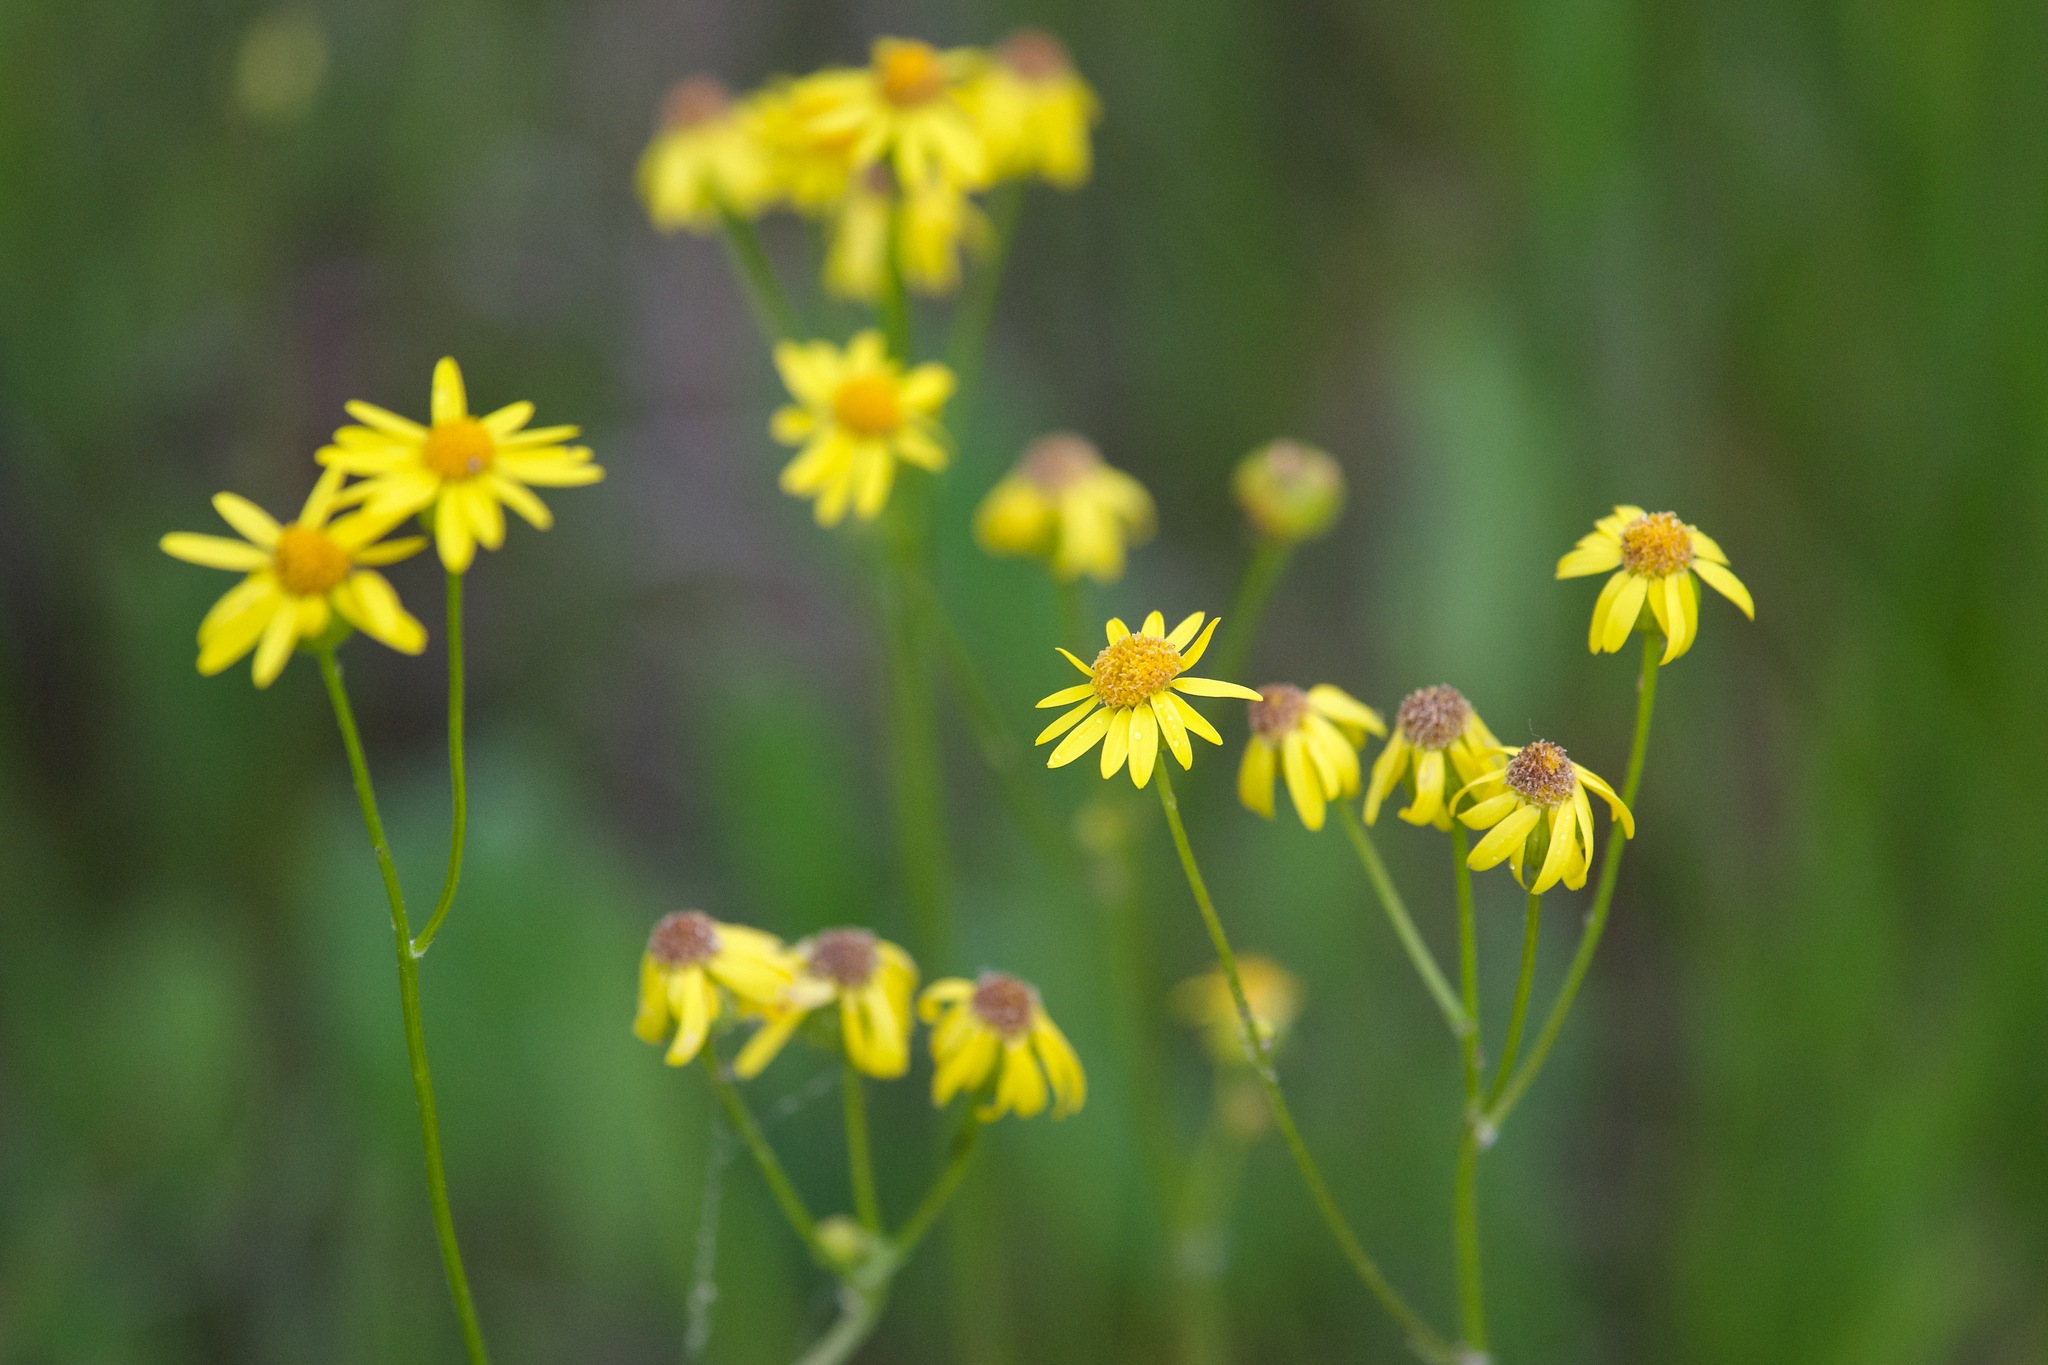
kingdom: Plantae
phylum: Tracheophyta
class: Magnoliopsida
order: Asterales
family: Asteraceae
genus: Packera
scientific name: Packera paupercula
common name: Balsam groundsel
